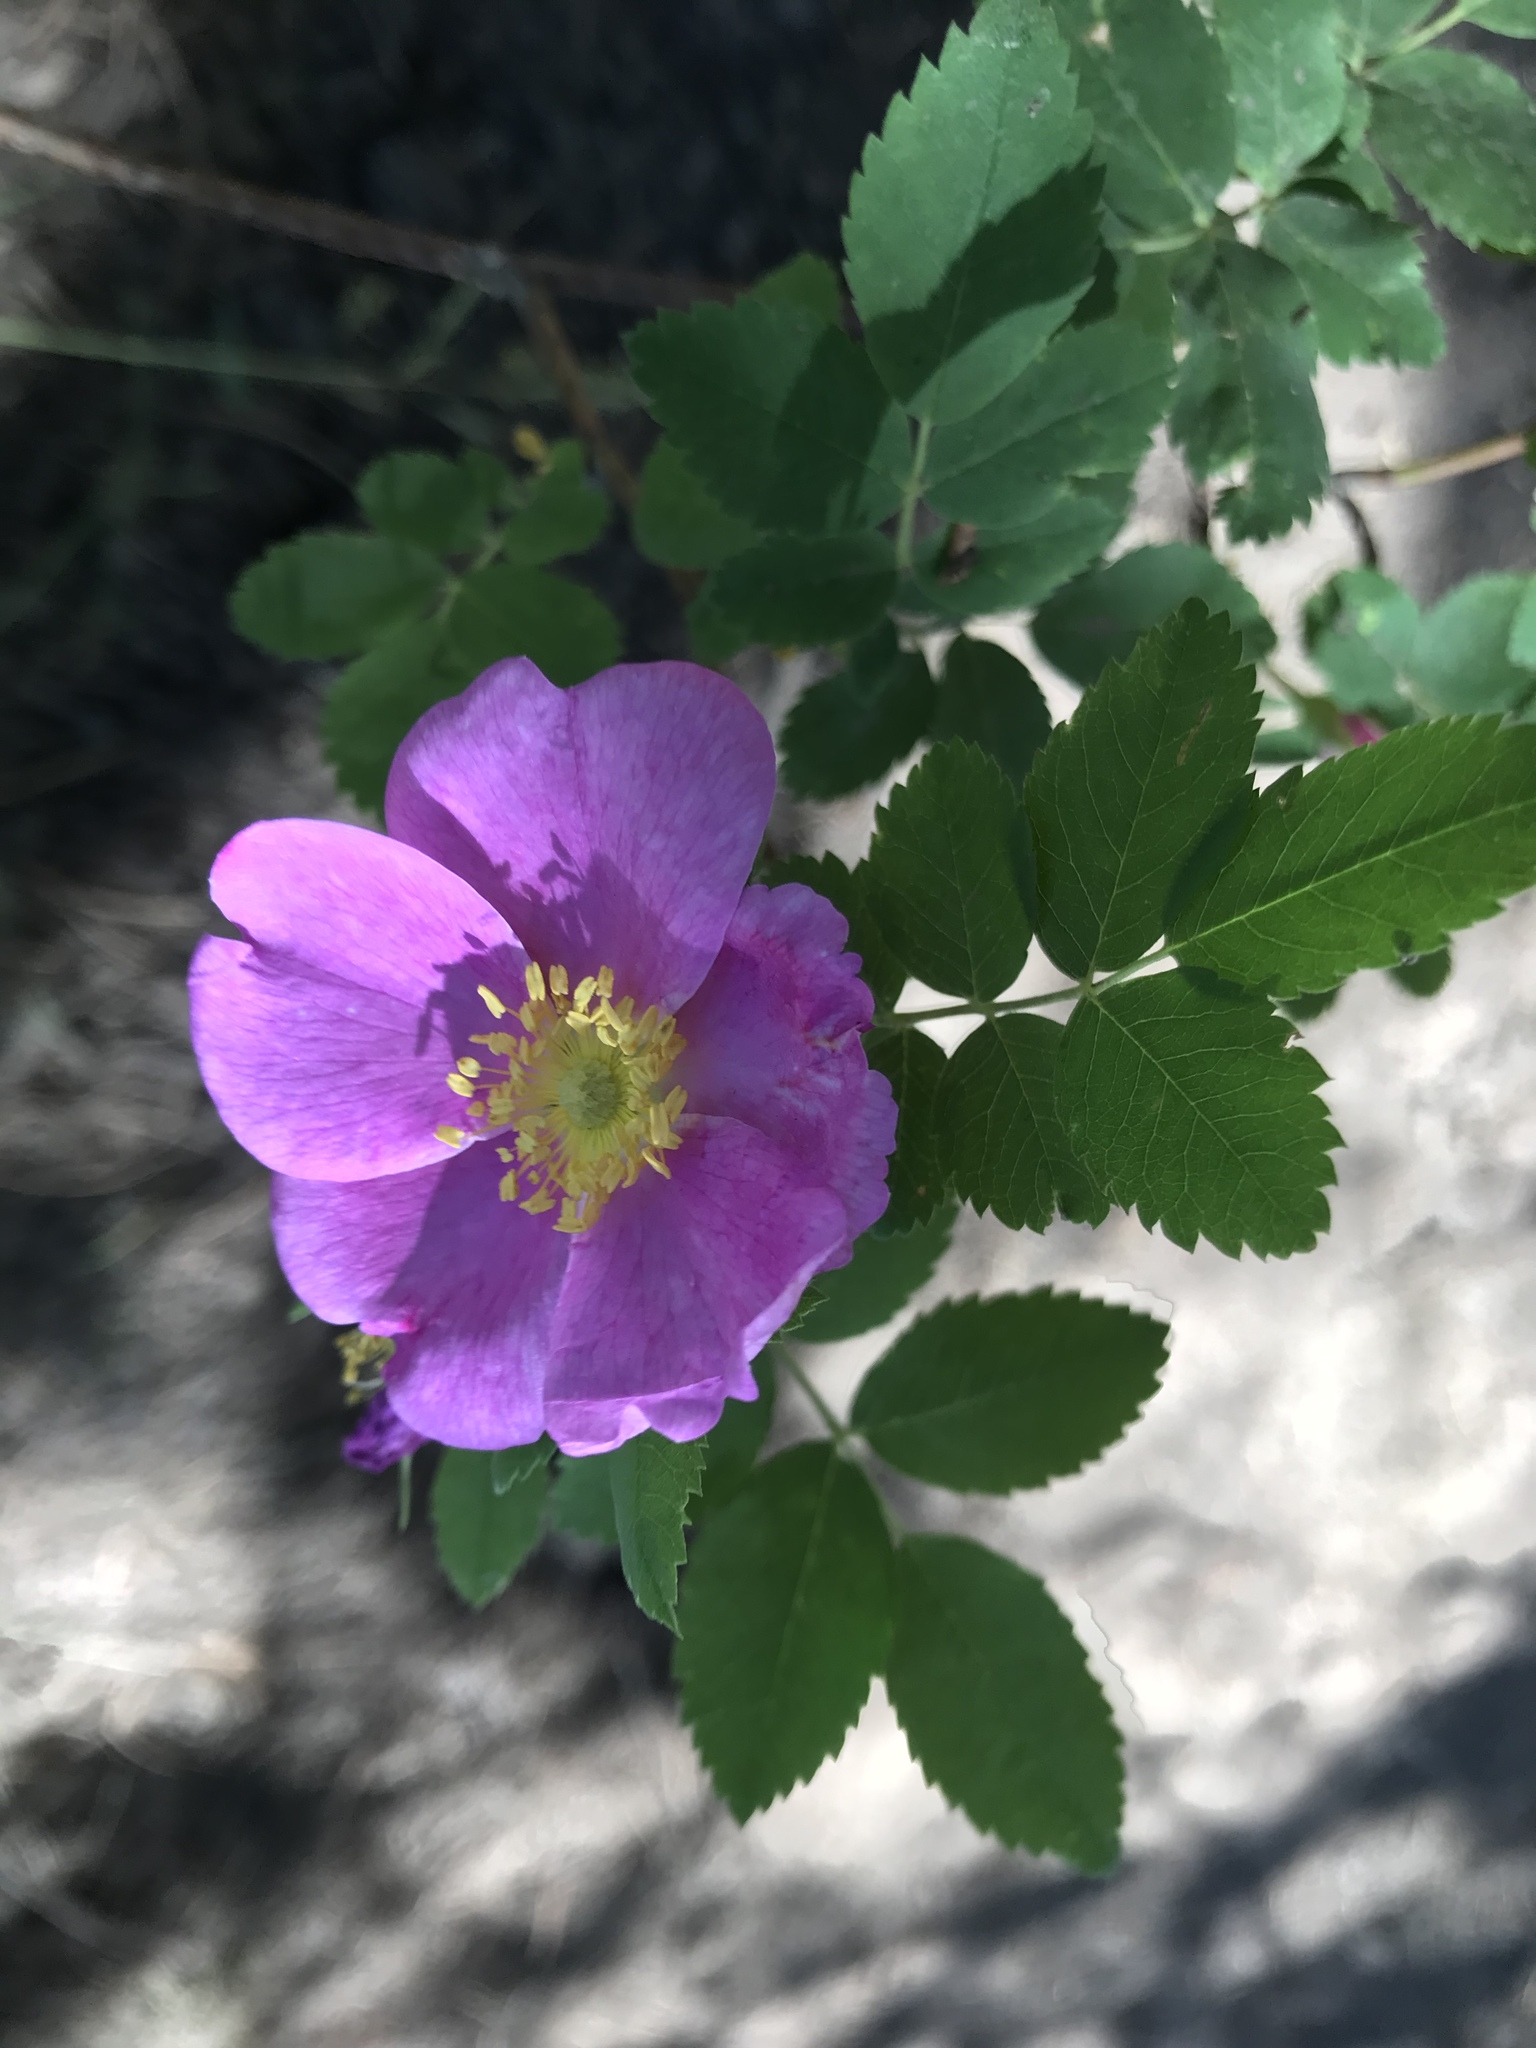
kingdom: Plantae
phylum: Tracheophyta
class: Magnoliopsida
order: Rosales
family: Rosaceae
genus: Rosa
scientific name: Rosa woodsii
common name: Woods's rose
